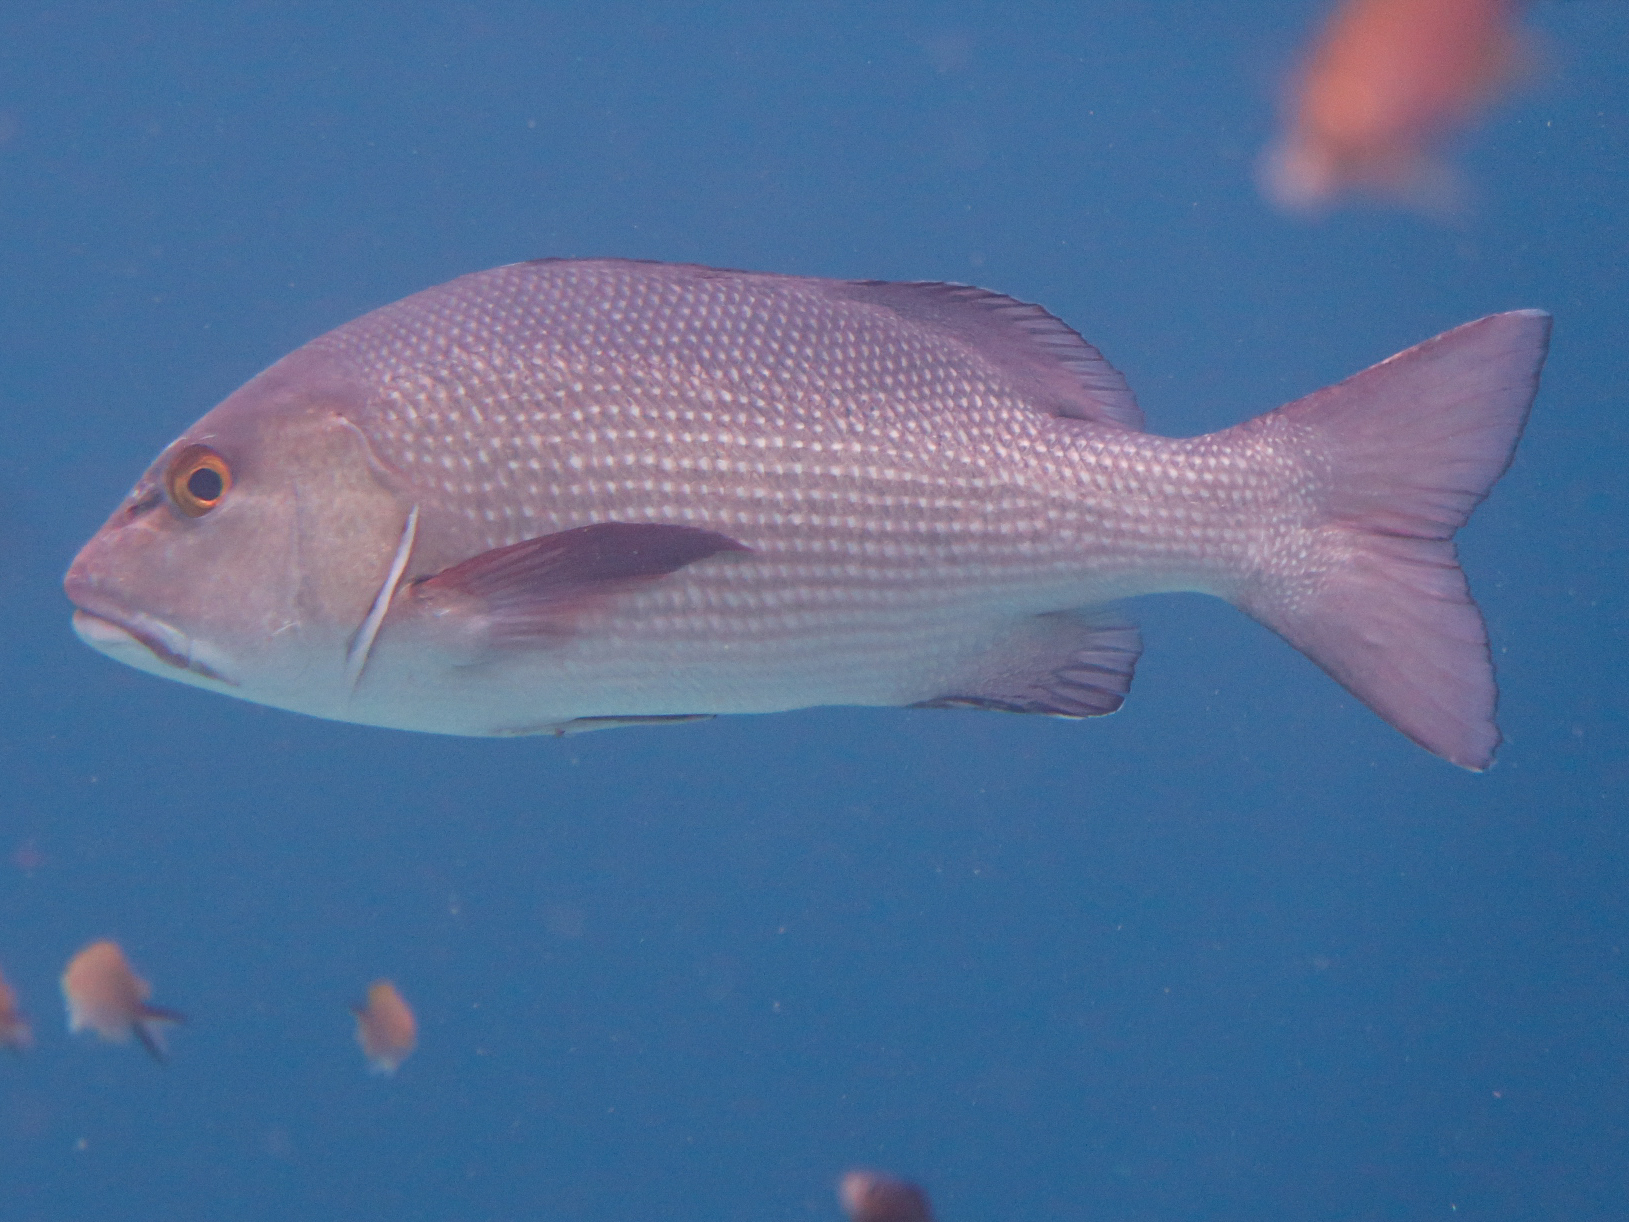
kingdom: Animalia
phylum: Chordata
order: Perciformes
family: Lutjanidae
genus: Lutjanus
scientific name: Lutjanus bohar
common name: Red bass
